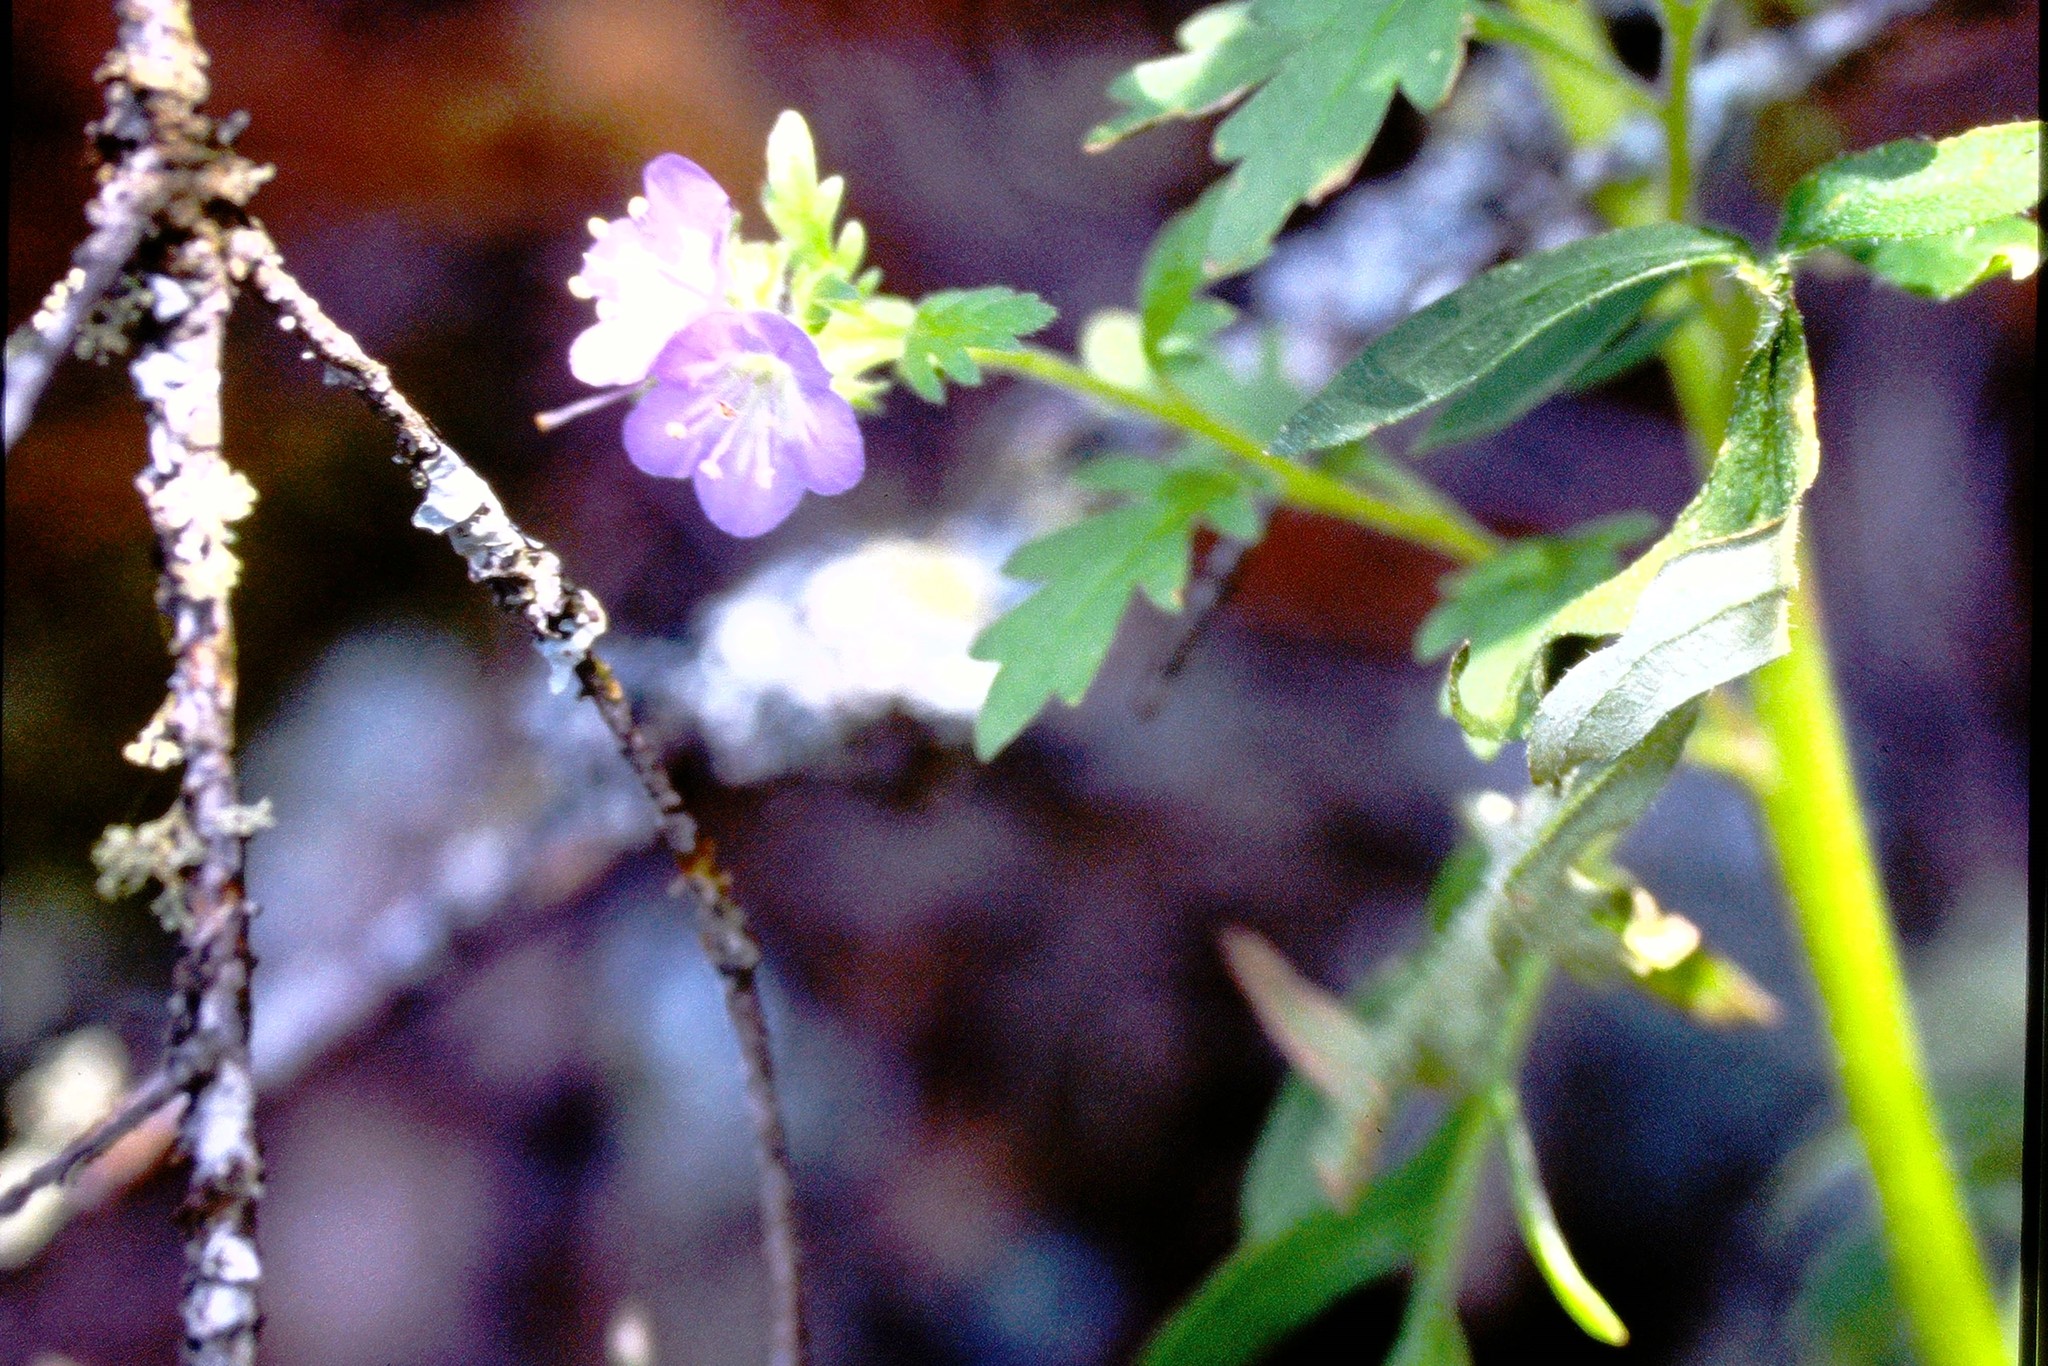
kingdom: Plantae
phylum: Tracheophyta
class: Magnoliopsida
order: Boraginales
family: Hydrophyllaceae
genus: Phacelia
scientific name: Phacelia franklinii
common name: Franklin's phacelia
